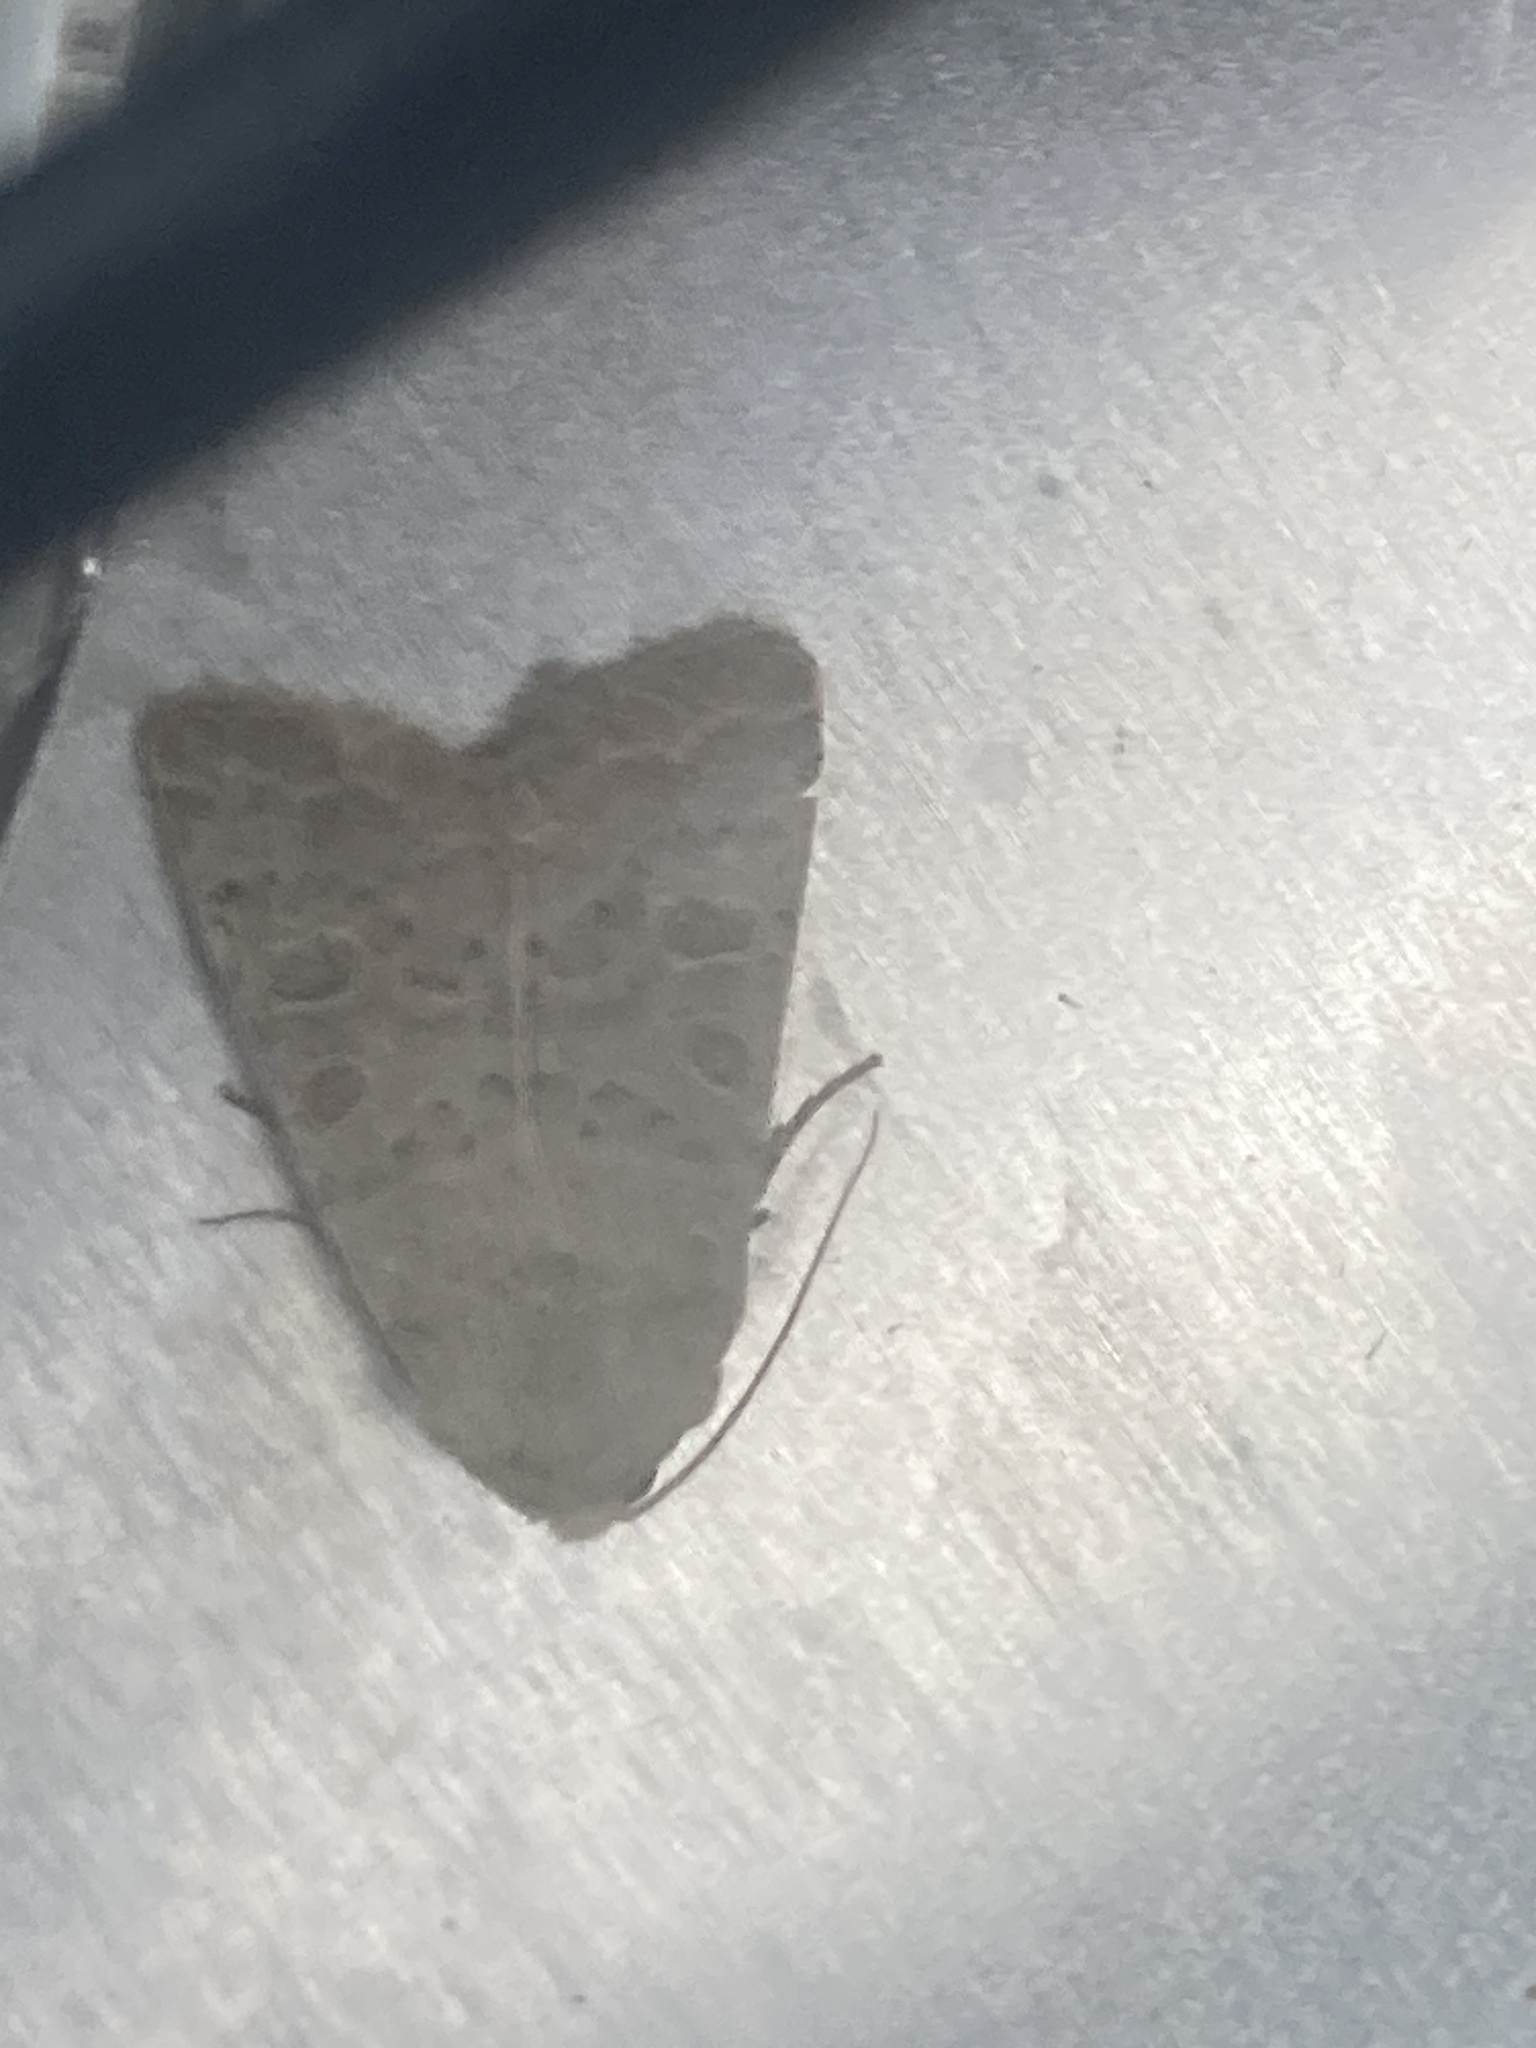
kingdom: Animalia
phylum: Arthropoda
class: Insecta
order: Lepidoptera
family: Noctuidae
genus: Hoplodrina
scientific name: Hoplodrina ambigua
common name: Vine's rustic
